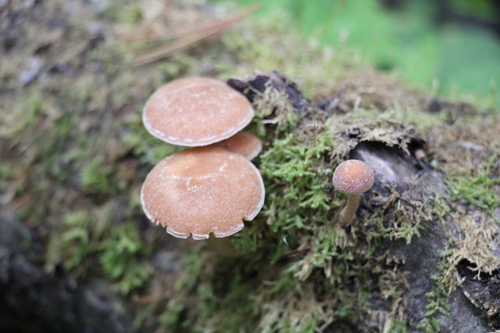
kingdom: Fungi
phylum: Basidiomycota
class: Agaricomycetes
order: Agaricales
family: Tubariaceae
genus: Tubaria
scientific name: Tubaria furfuracea
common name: Scurfy twiglet
